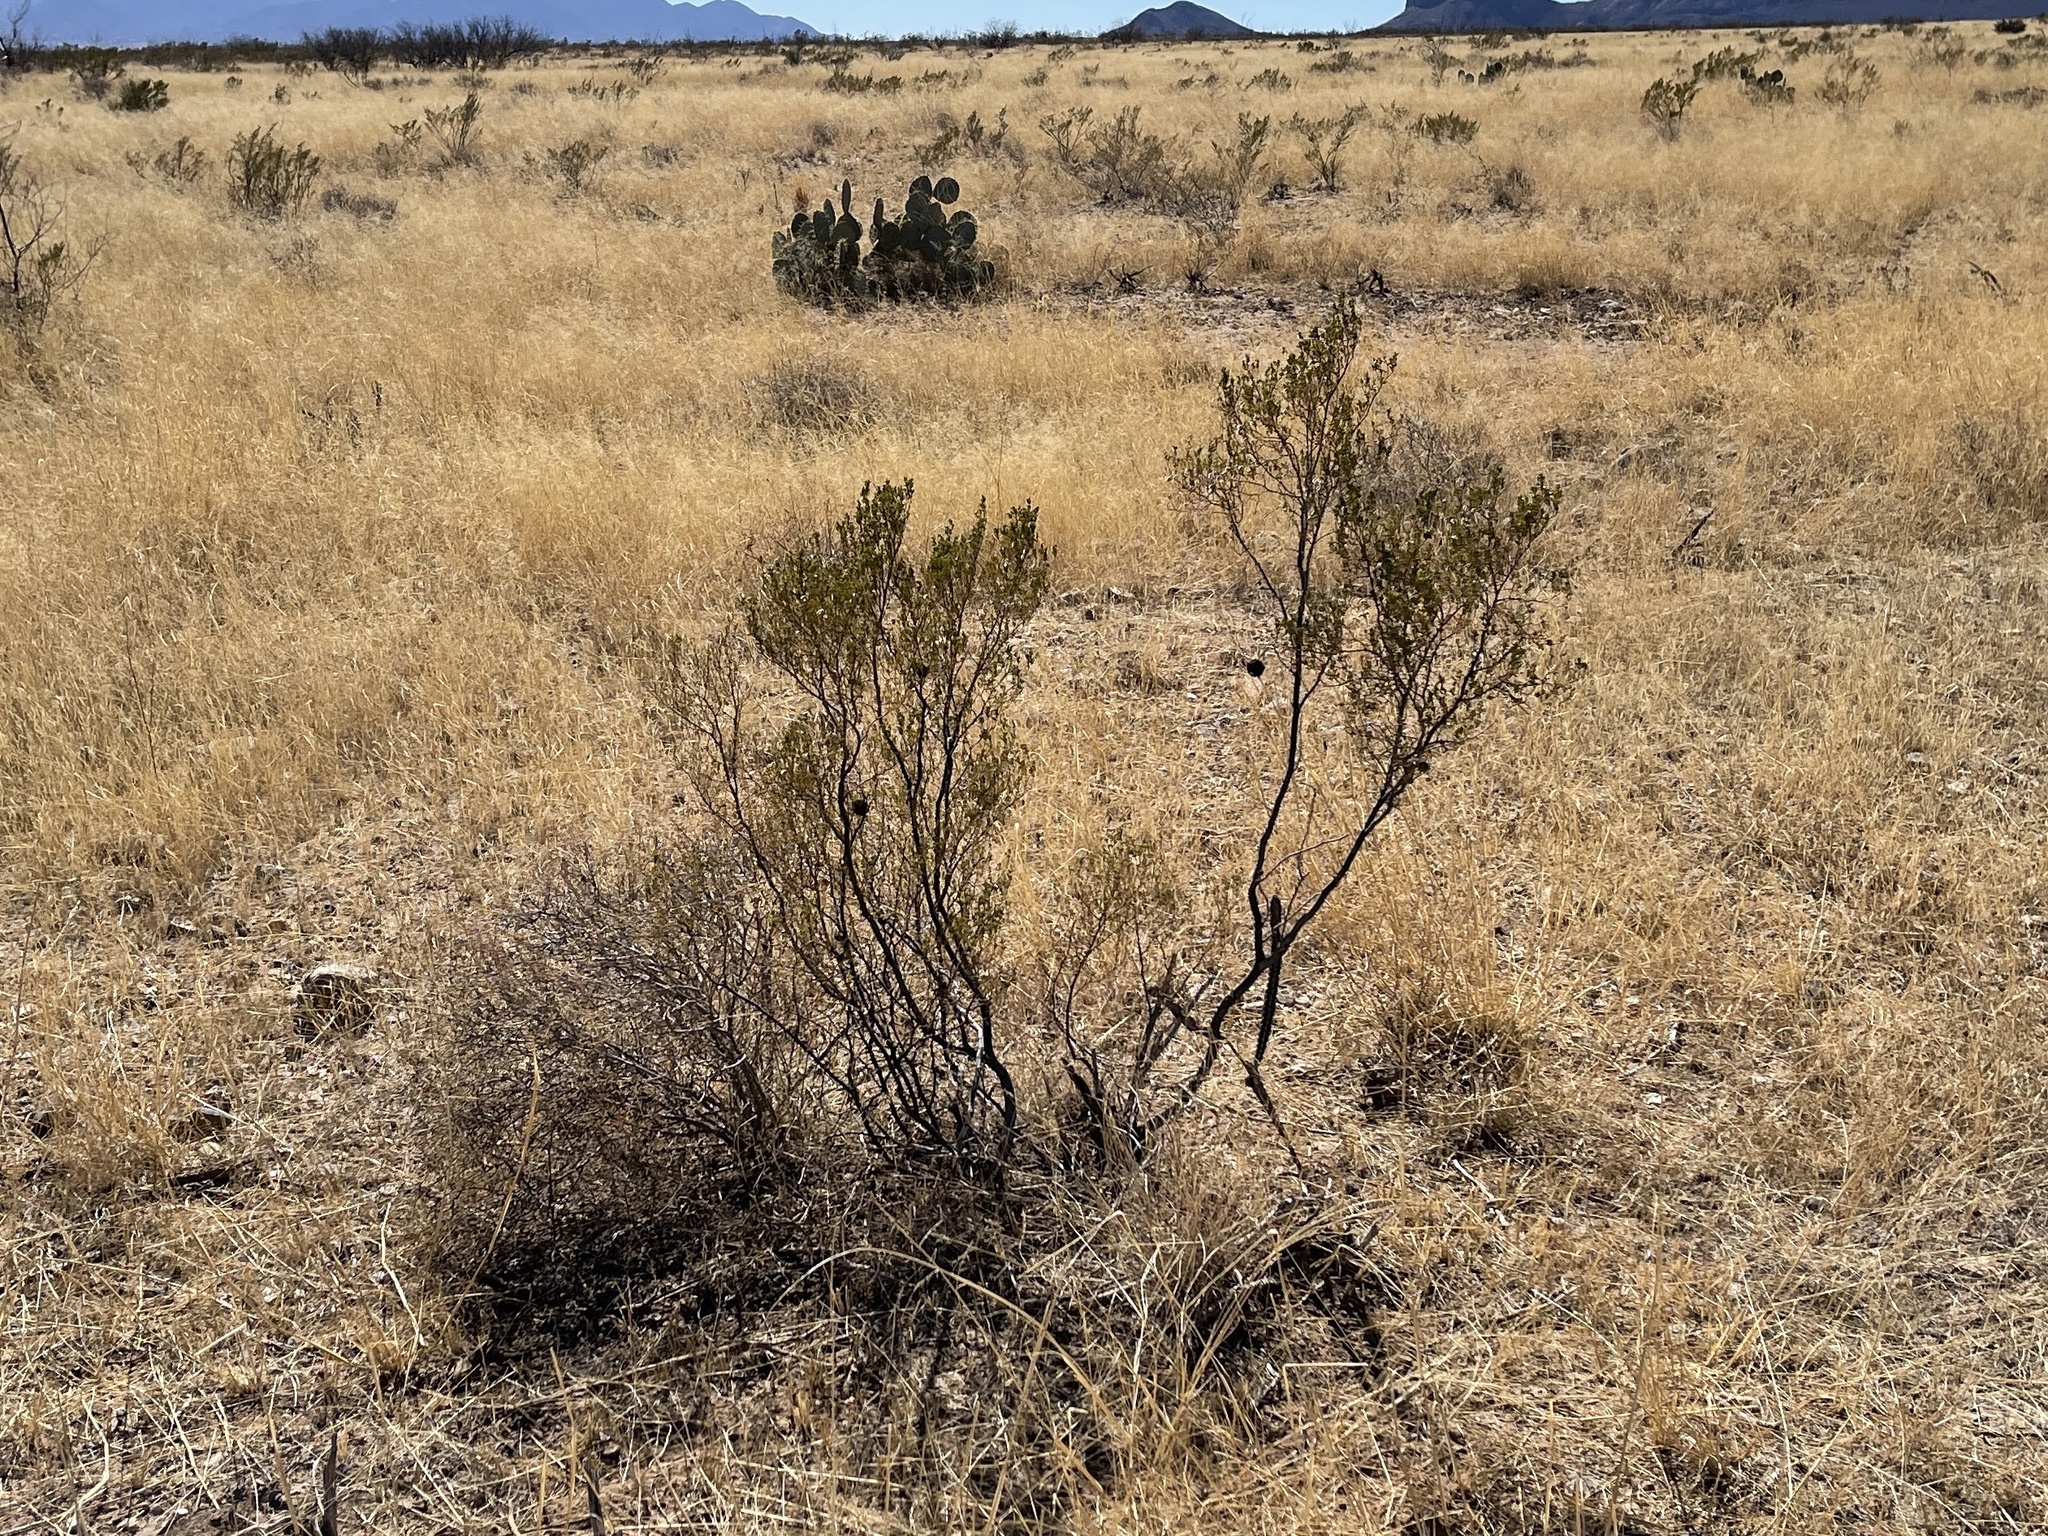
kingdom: Plantae
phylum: Tracheophyta
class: Magnoliopsida
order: Zygophyllales
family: Zygophyllaceae
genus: Larrea
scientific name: Larrea tridentata
